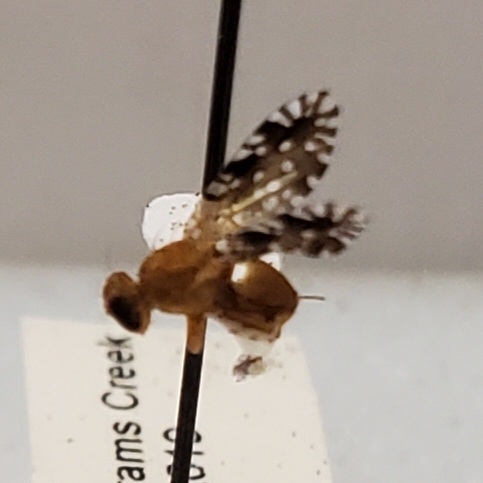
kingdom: Animalia
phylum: Arthropoda
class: Insecta
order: Diptera
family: Tephritidae
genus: Euaresta
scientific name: Euaresta festiva
